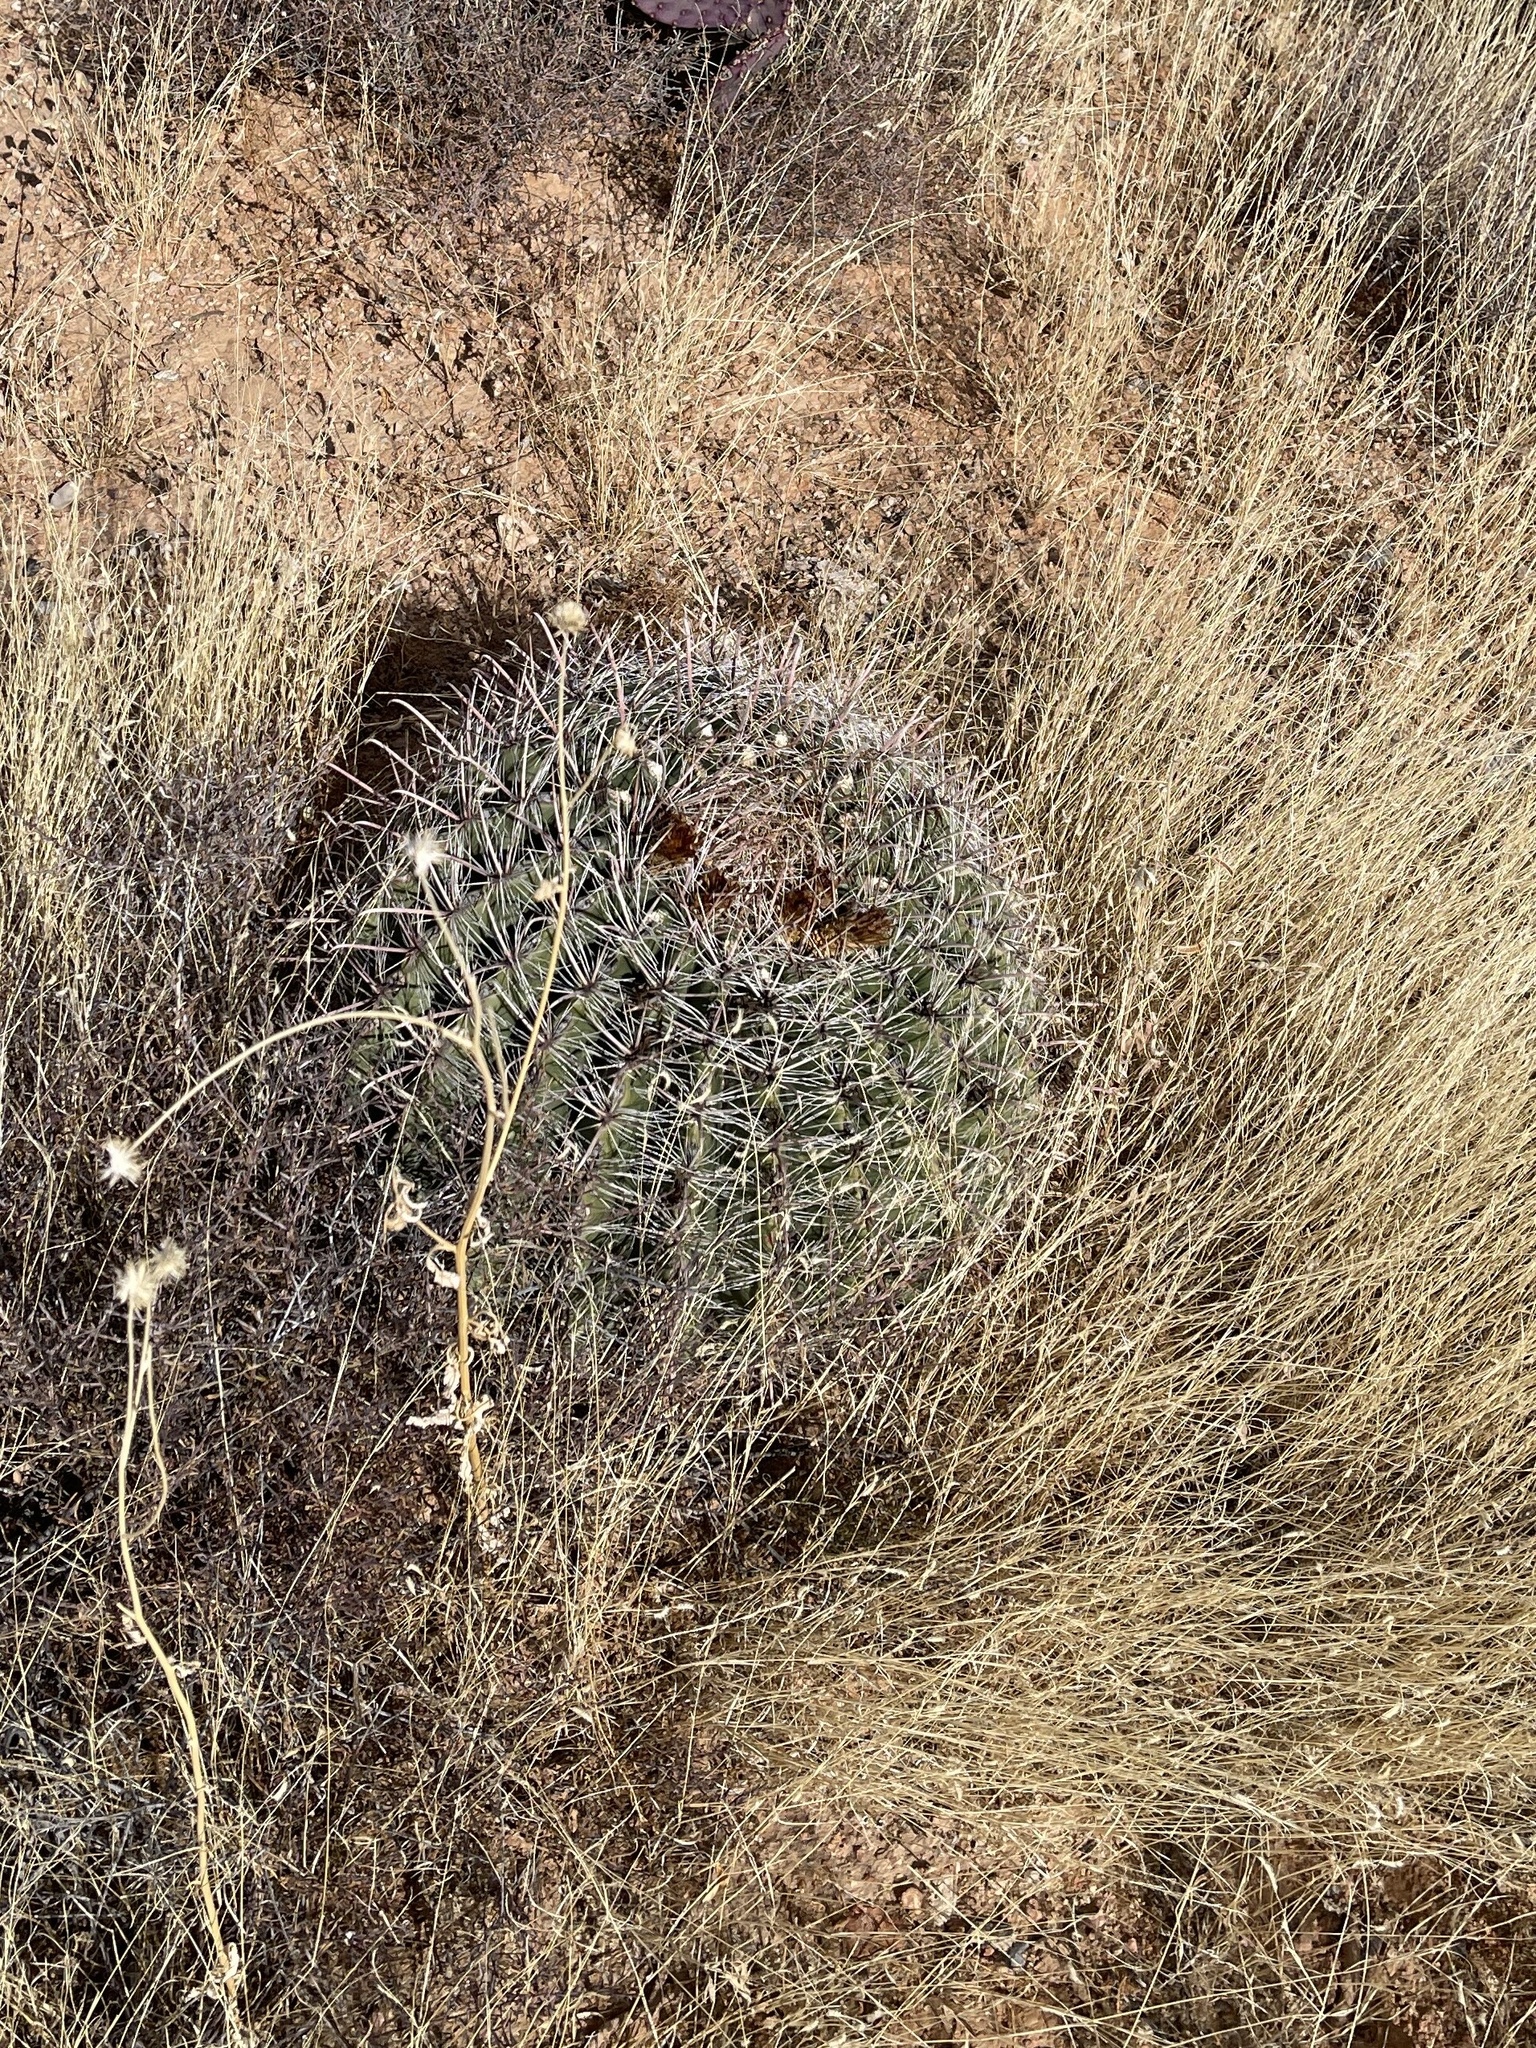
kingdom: Plantae
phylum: Tracheophyta
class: Magnoliopsida
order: Caryophyllales
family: Cactaceae
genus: Ferocactus
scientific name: Ferocactus wislizeni
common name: Candy barrel cactus
